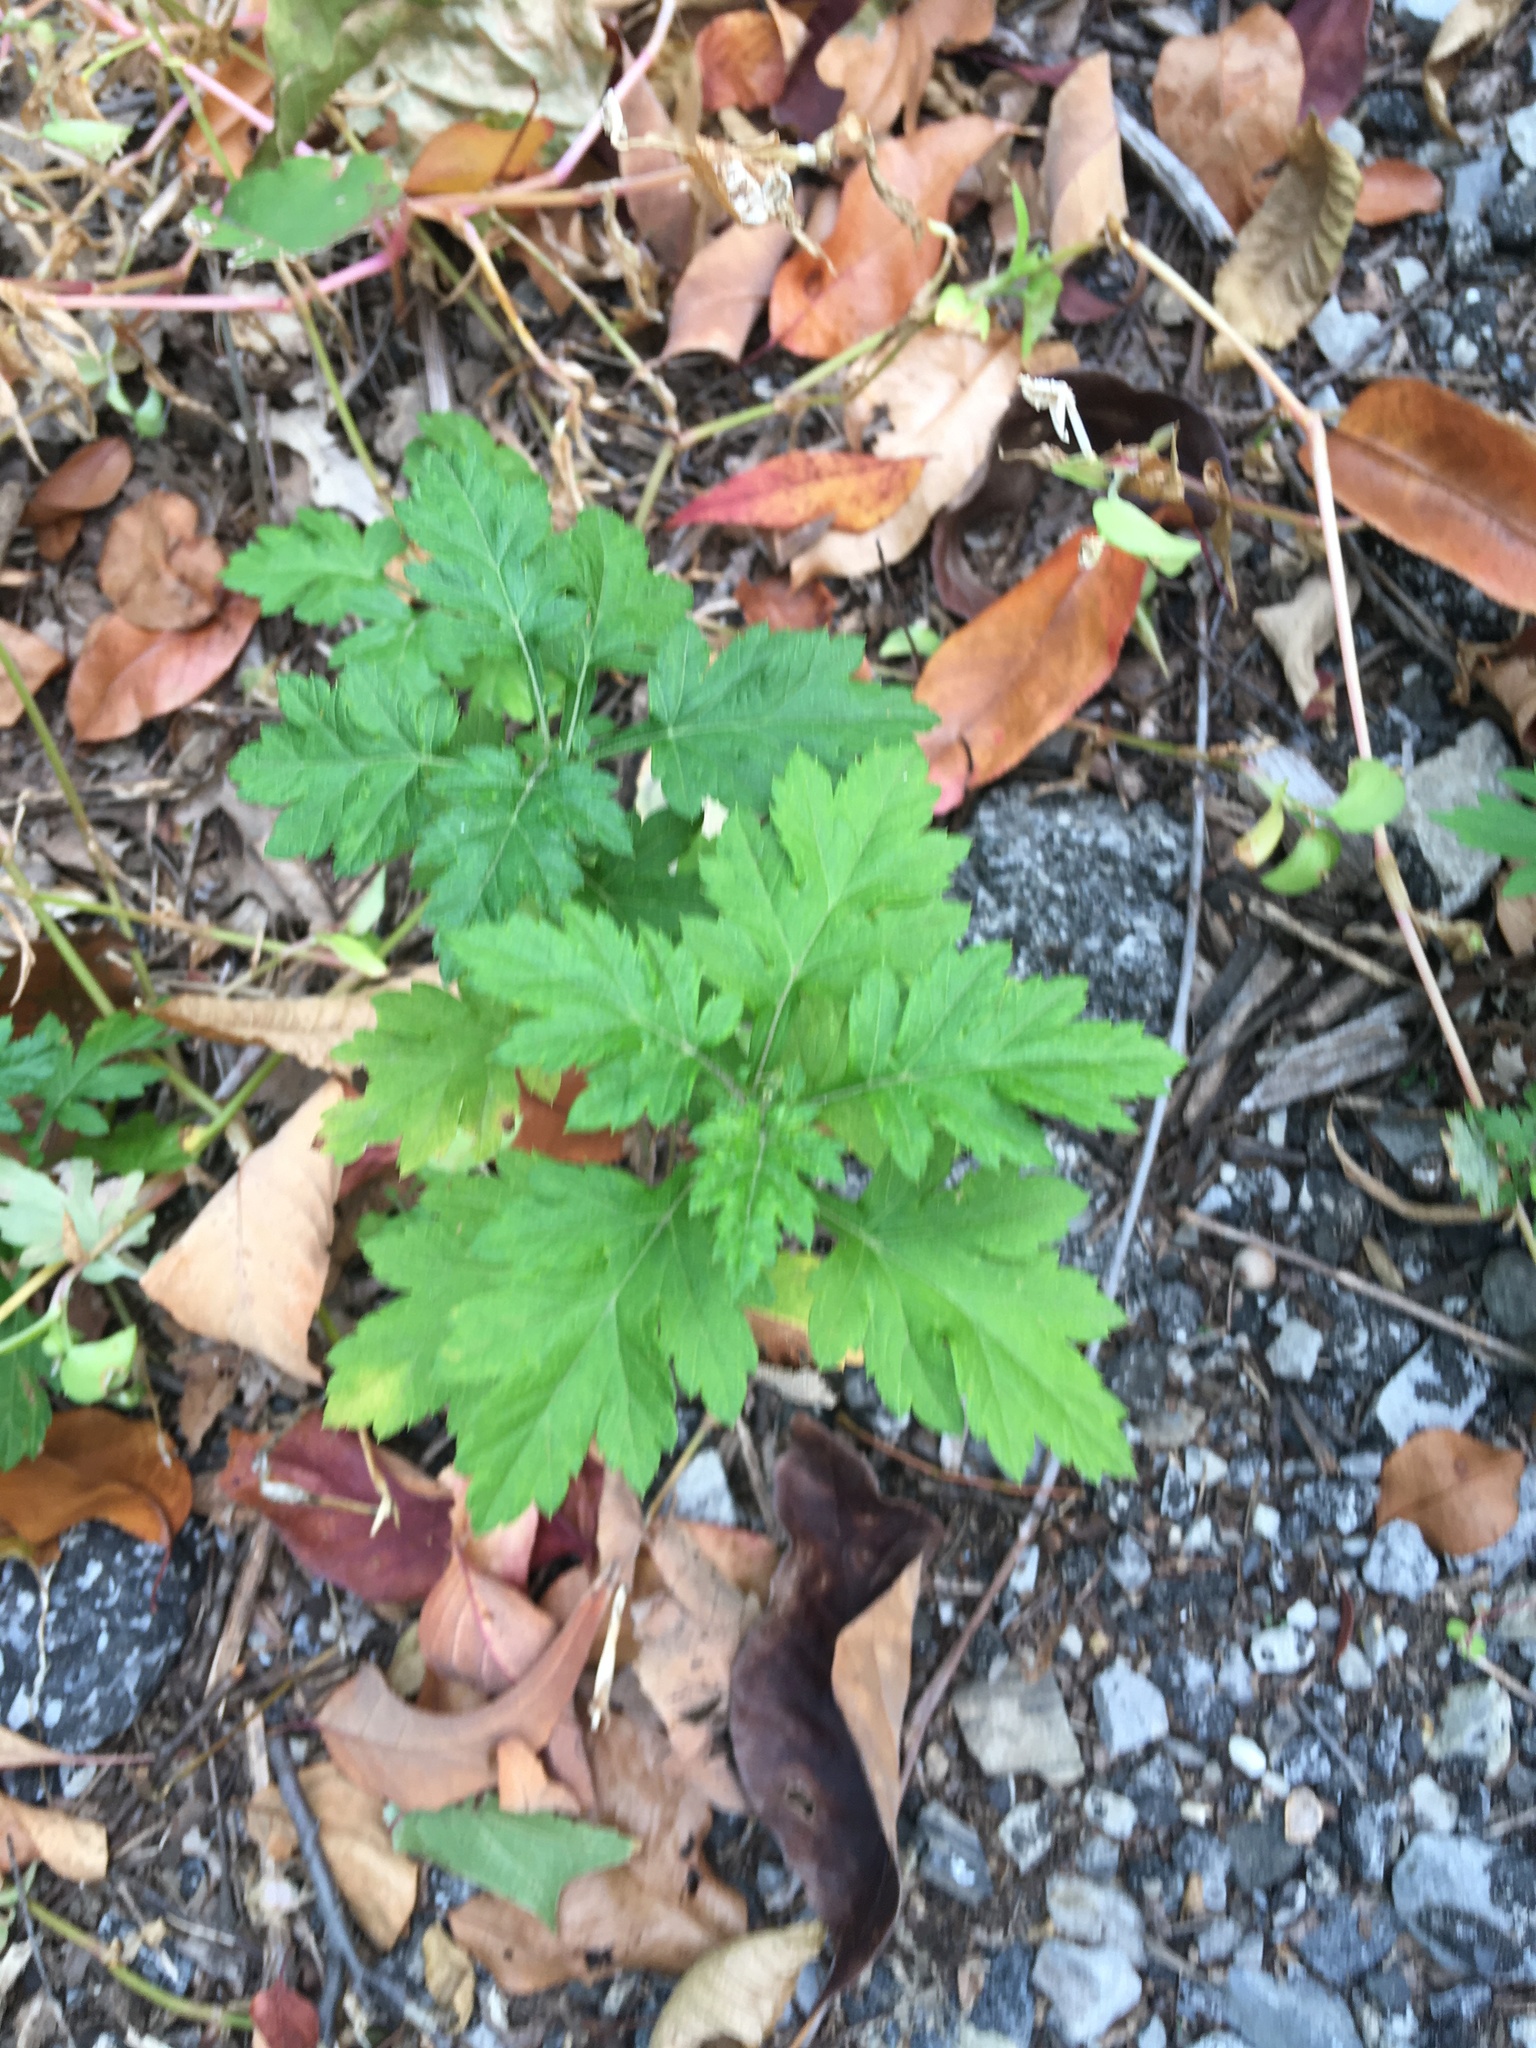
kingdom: Plantae
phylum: Tracheophyta
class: Magnoliopsida
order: Asterales
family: Asteraceae
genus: Artemisia
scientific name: Artemisia vulgaris
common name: Mugwort
